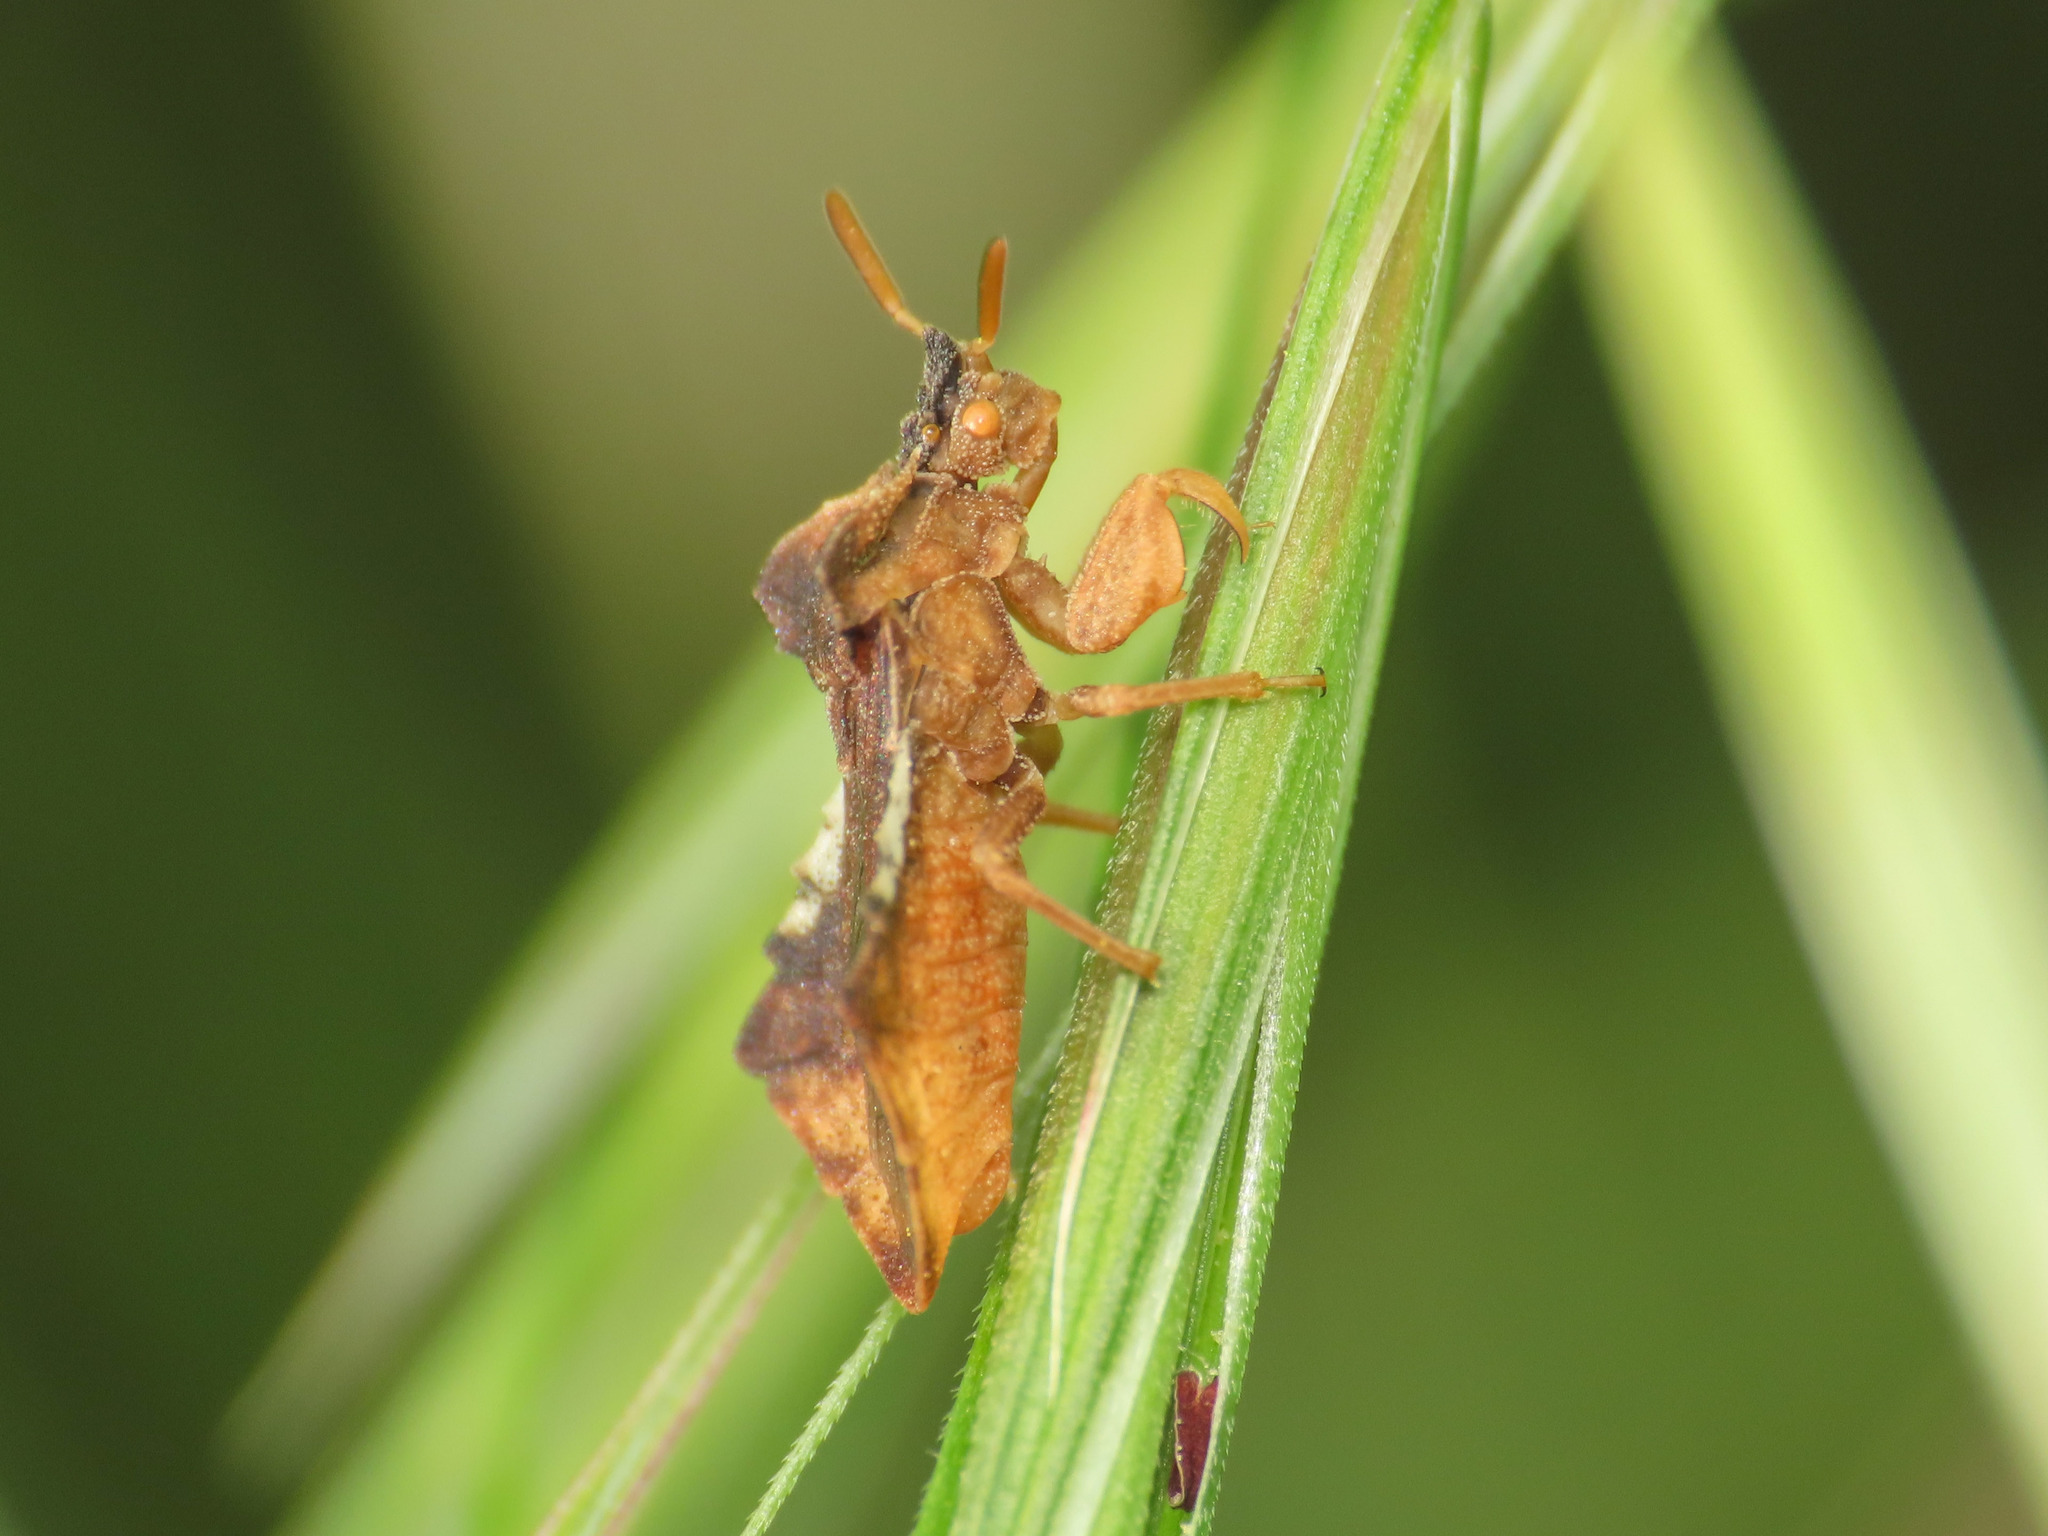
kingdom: Animalia
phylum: Arthropoda
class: Insecta
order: Hemiptera
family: Reduviidae
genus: Phymata
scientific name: Phymata crassipes
